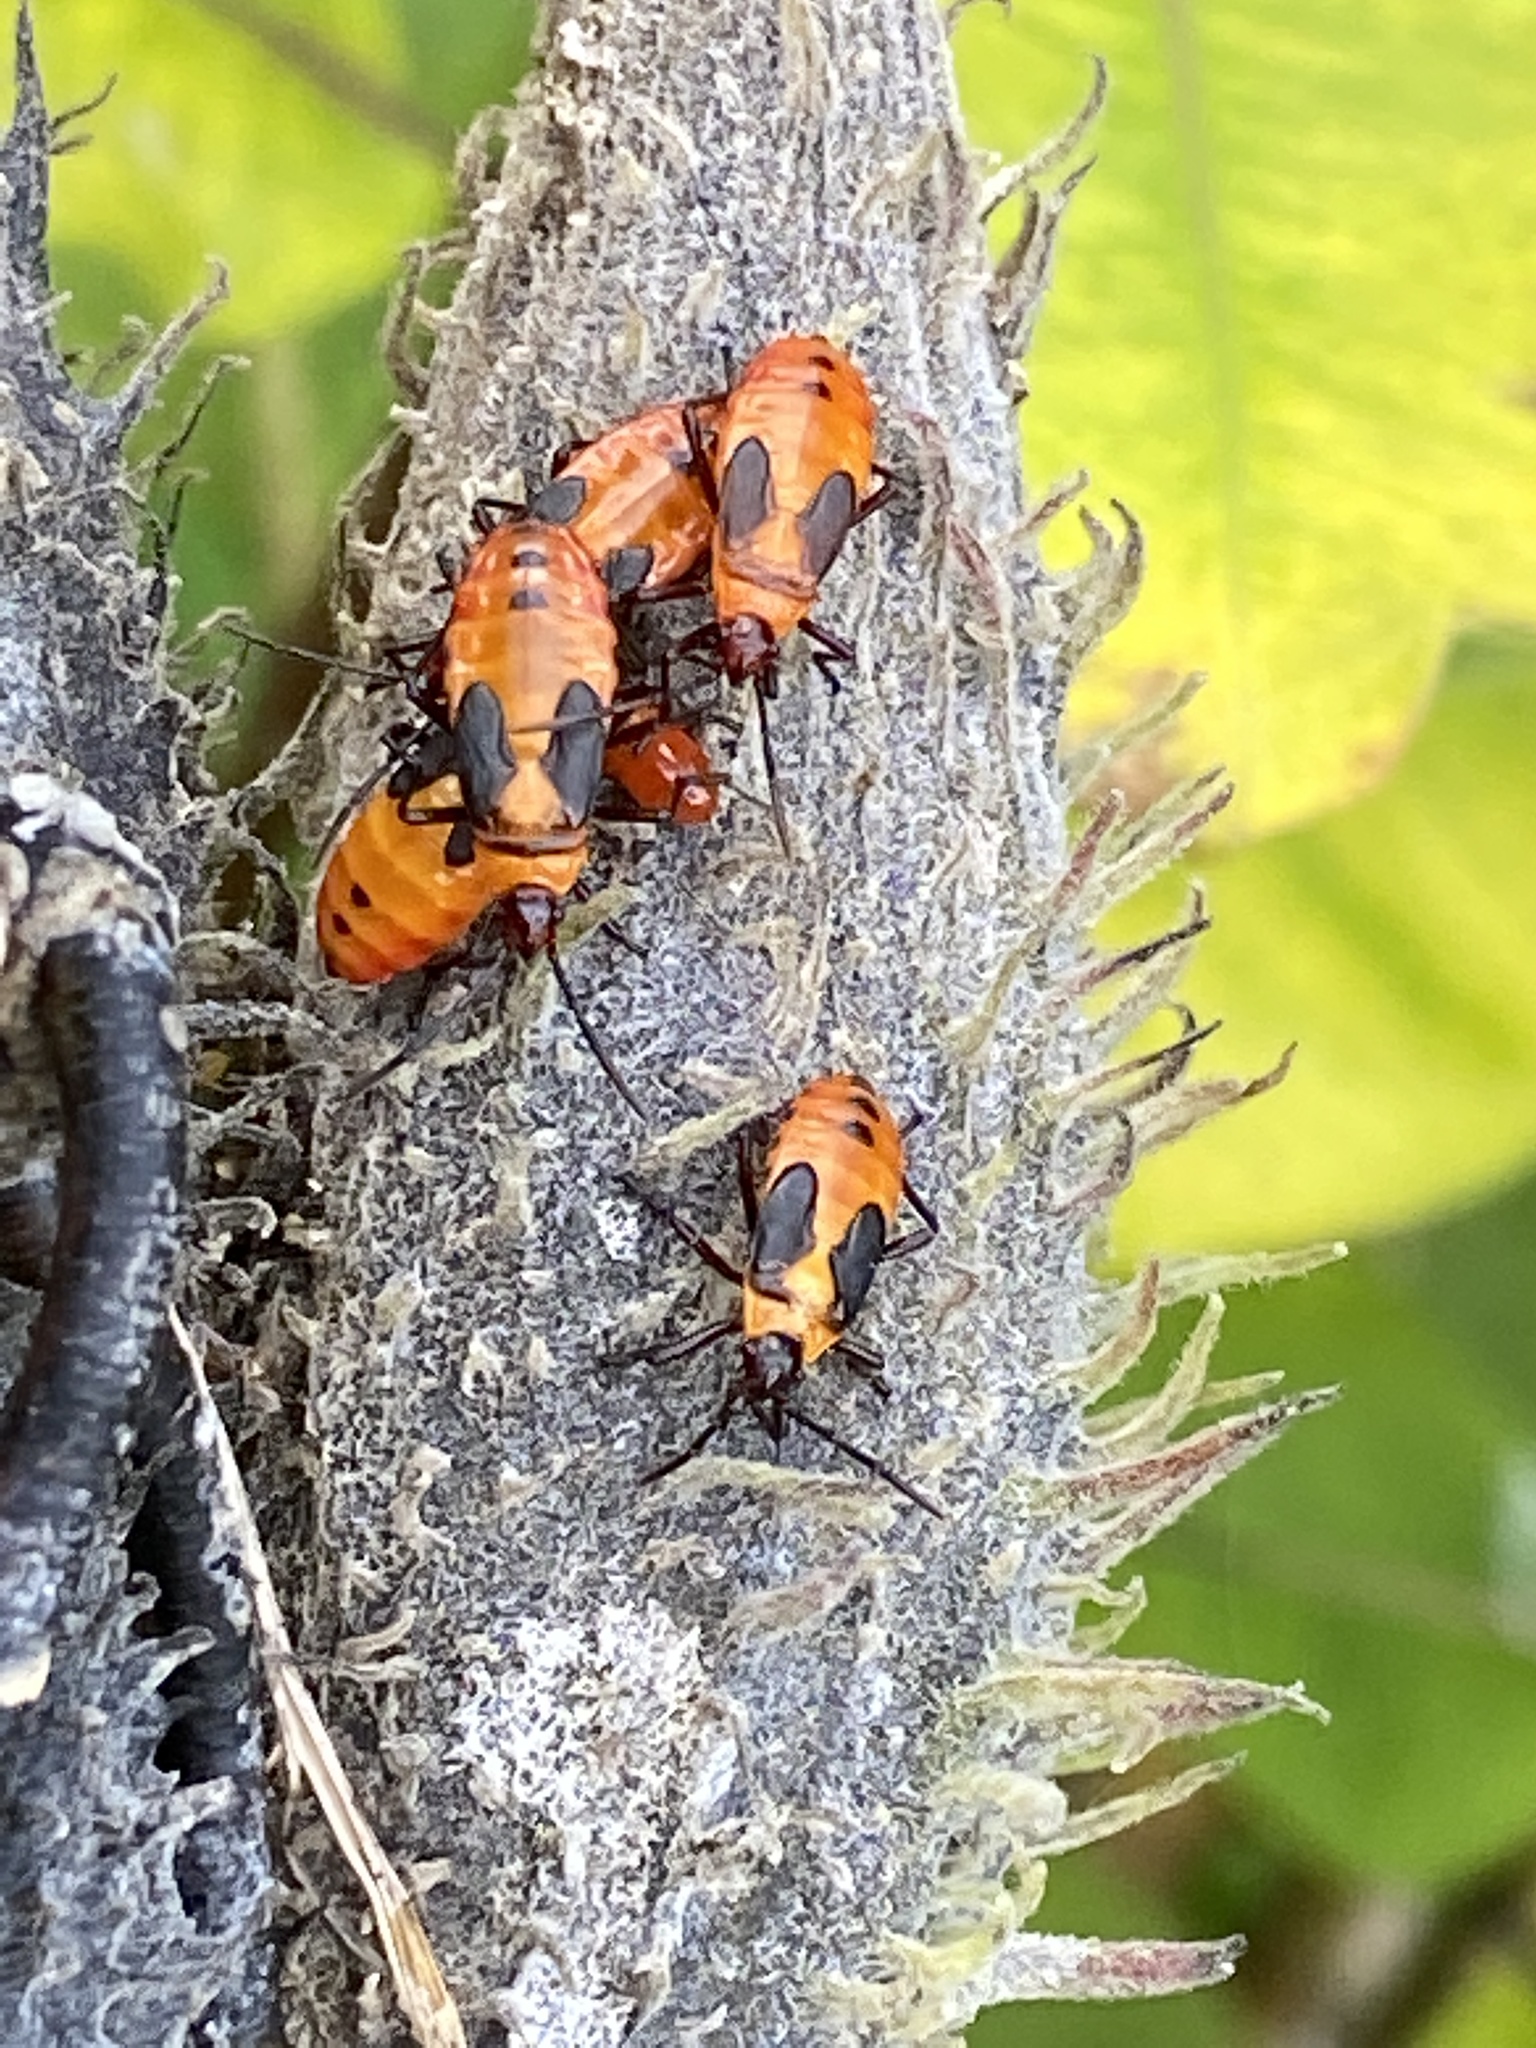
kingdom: Animalia
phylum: Arthropoda
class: Insecta
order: Hemiptera
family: Lygaeidae
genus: Oncopeltus
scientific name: Oncopeltus fasciatus
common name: Large milkweed bug
